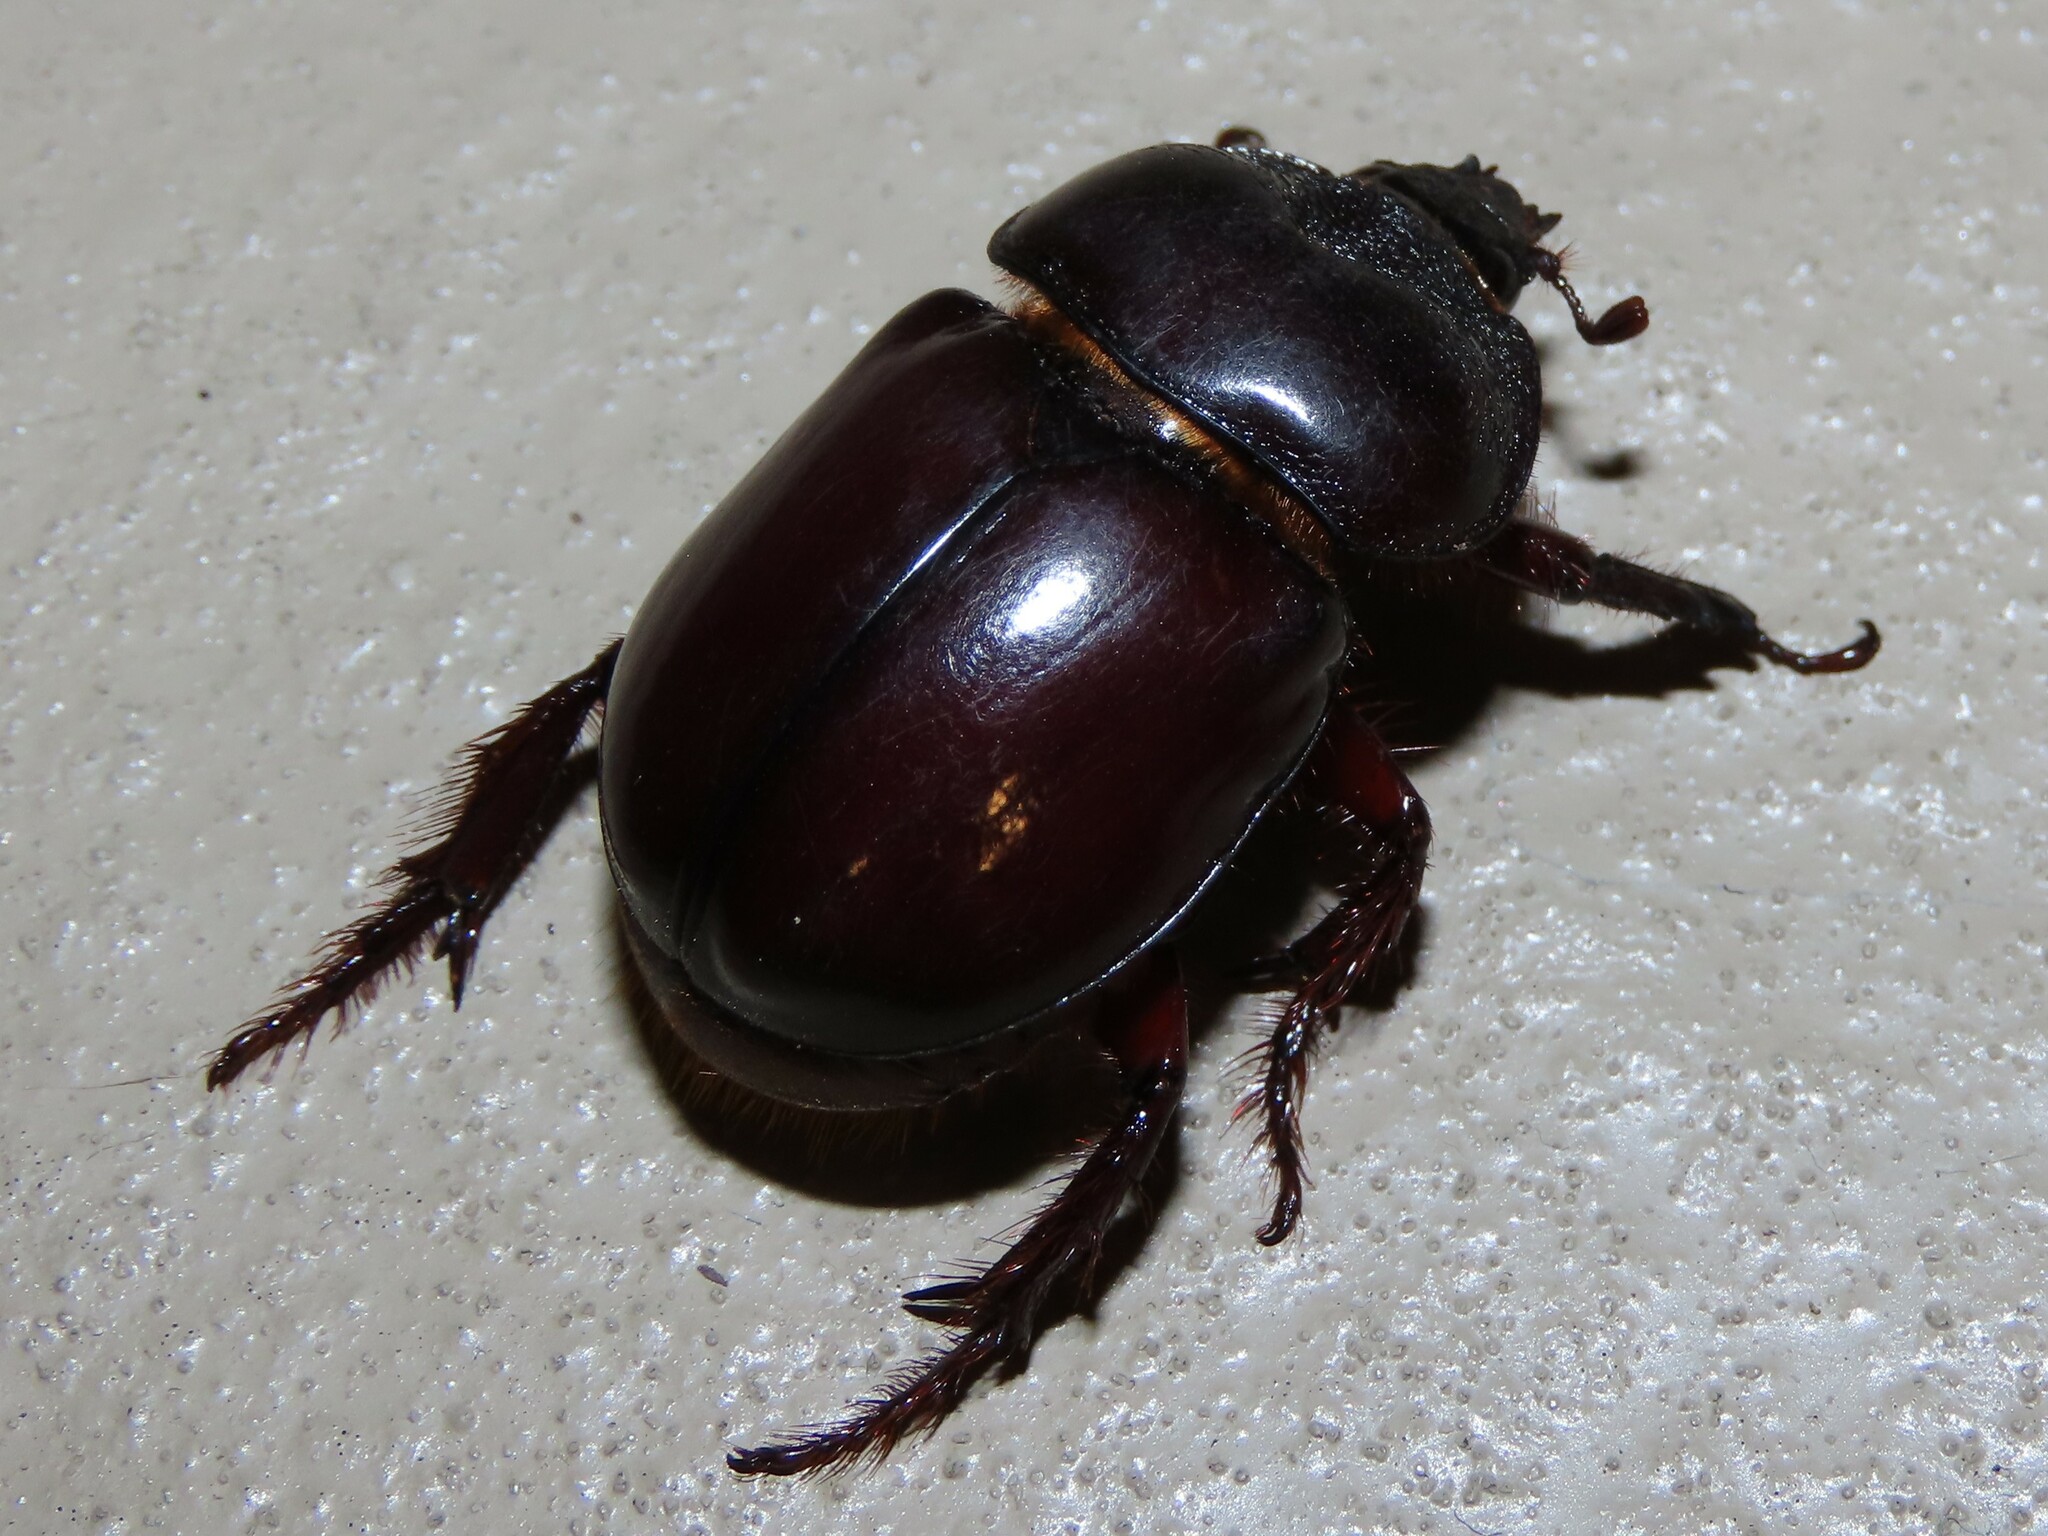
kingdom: Animalia
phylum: Arthropoda
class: Insecta
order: Coleoptera
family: Scarabaeidae
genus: Strategus
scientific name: Strategus antaeus
